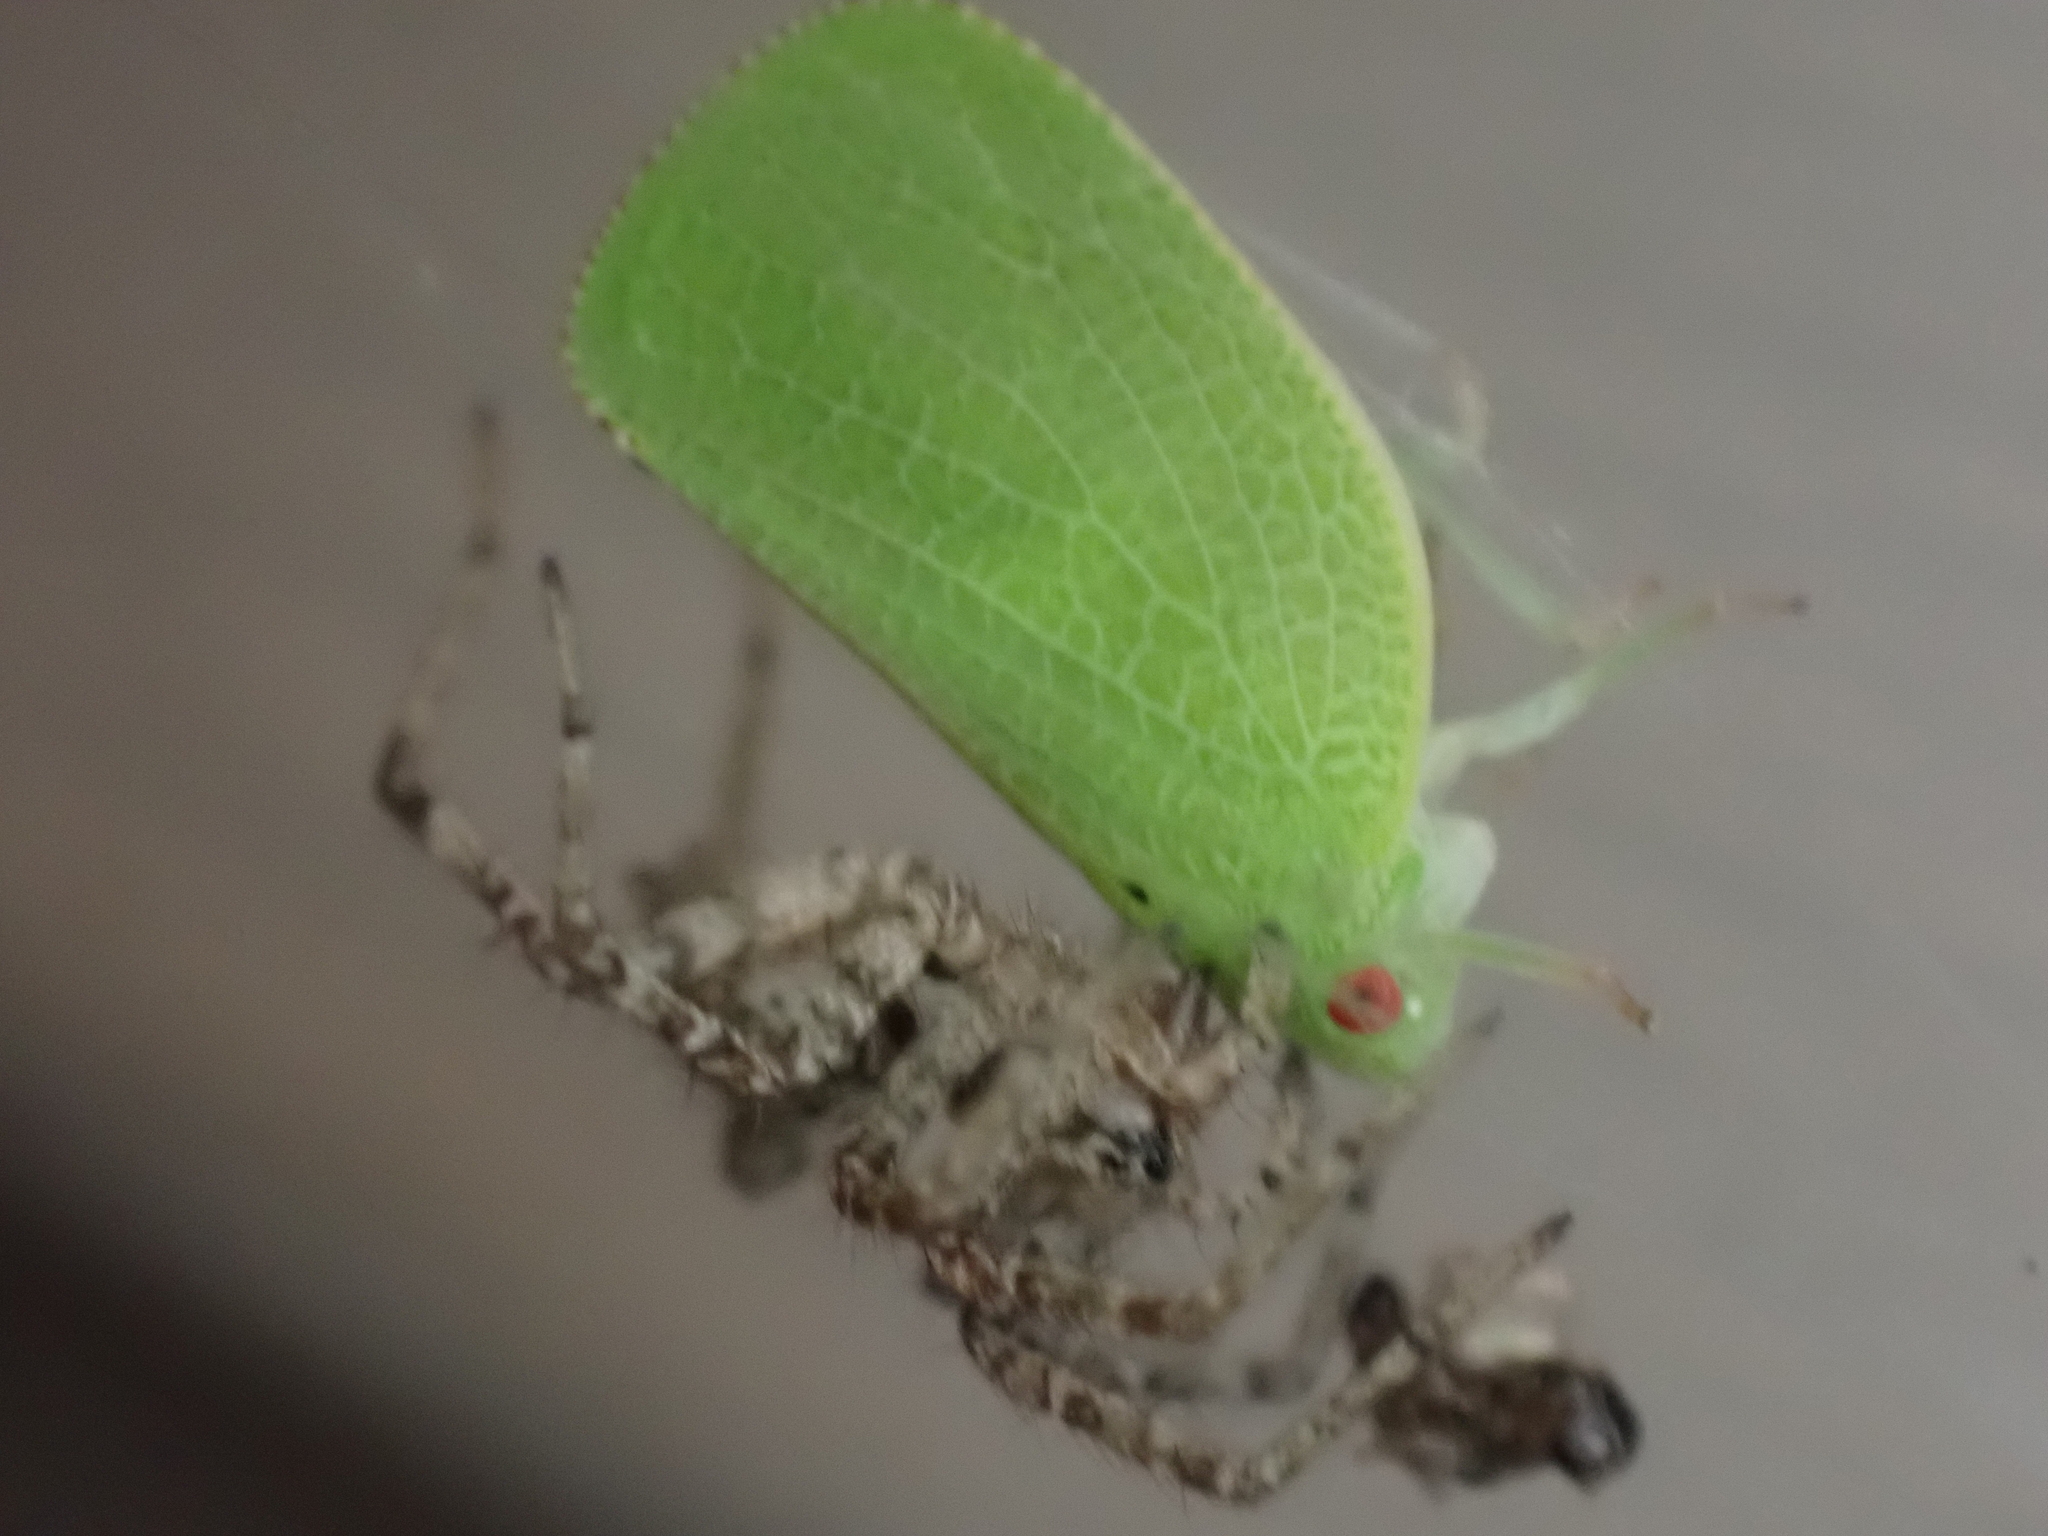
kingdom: Animalia
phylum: Arthropoda
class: Insecta
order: Hemiptera
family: Acanaloniidae
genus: Acanalonia
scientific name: Acanalonia conica
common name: Green cone-headed planthopper
